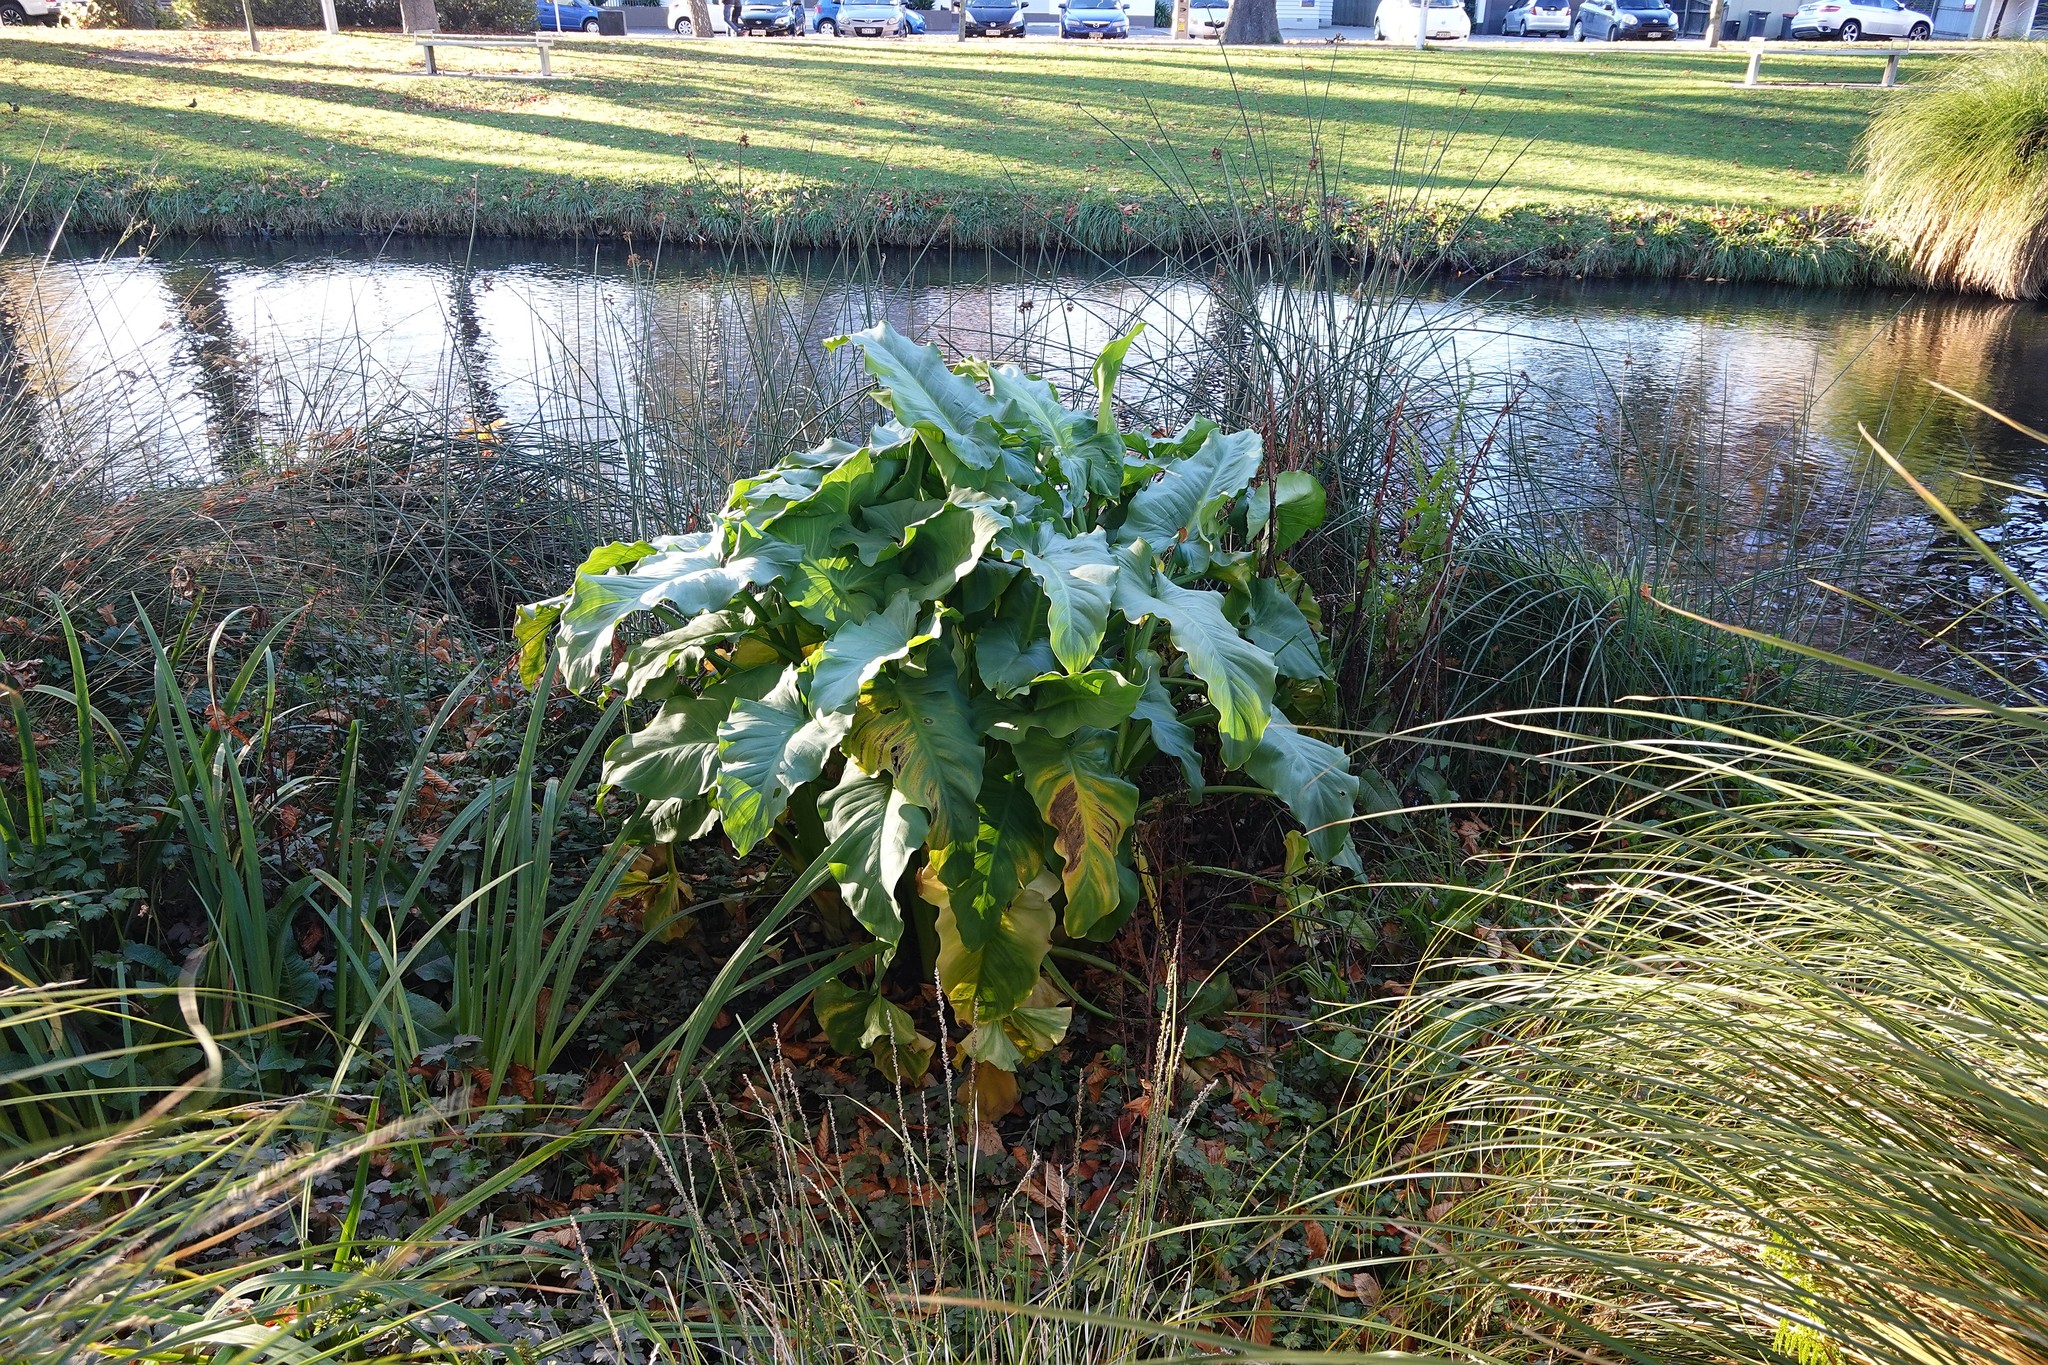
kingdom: Plantae
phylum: Tracheophyta
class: Liliopsida
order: Alismatales
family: Araceae
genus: Zantedeschia
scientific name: Zantedeschia aethiopica
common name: Altar-lily
